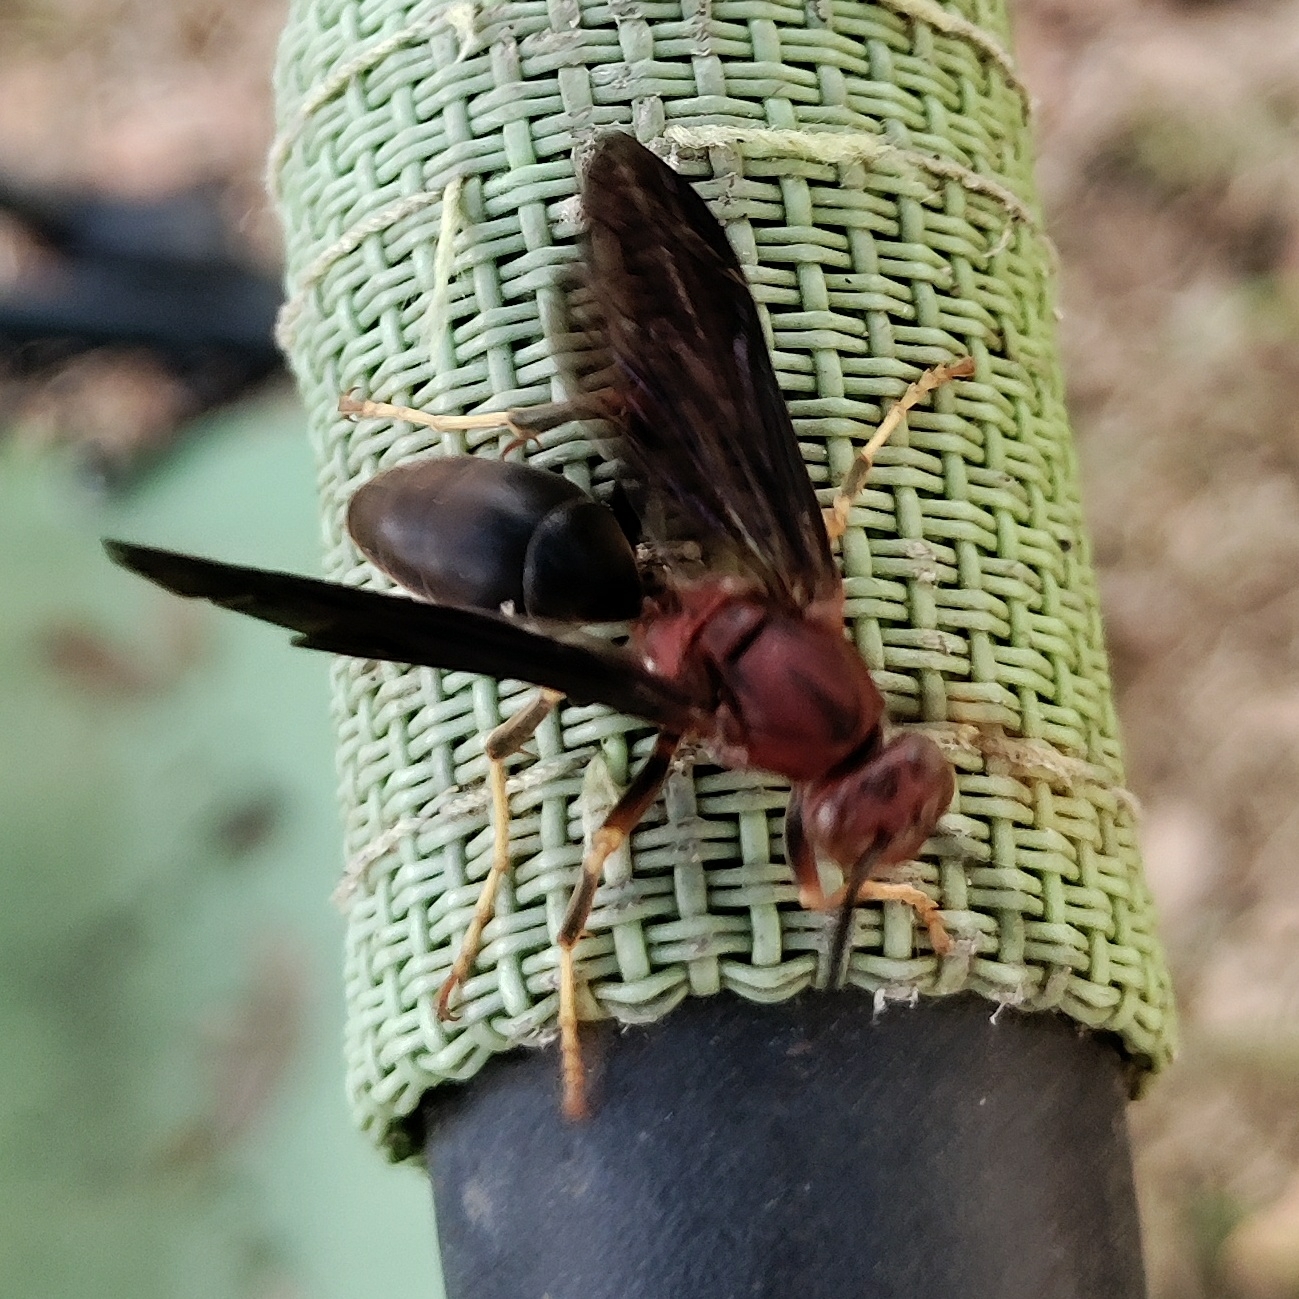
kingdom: Animalia
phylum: Arthropoda
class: Insecta
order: Hymenoptera
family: Eumenidae
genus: Polistes
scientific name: Polistes metricus
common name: Metric paper wasp
